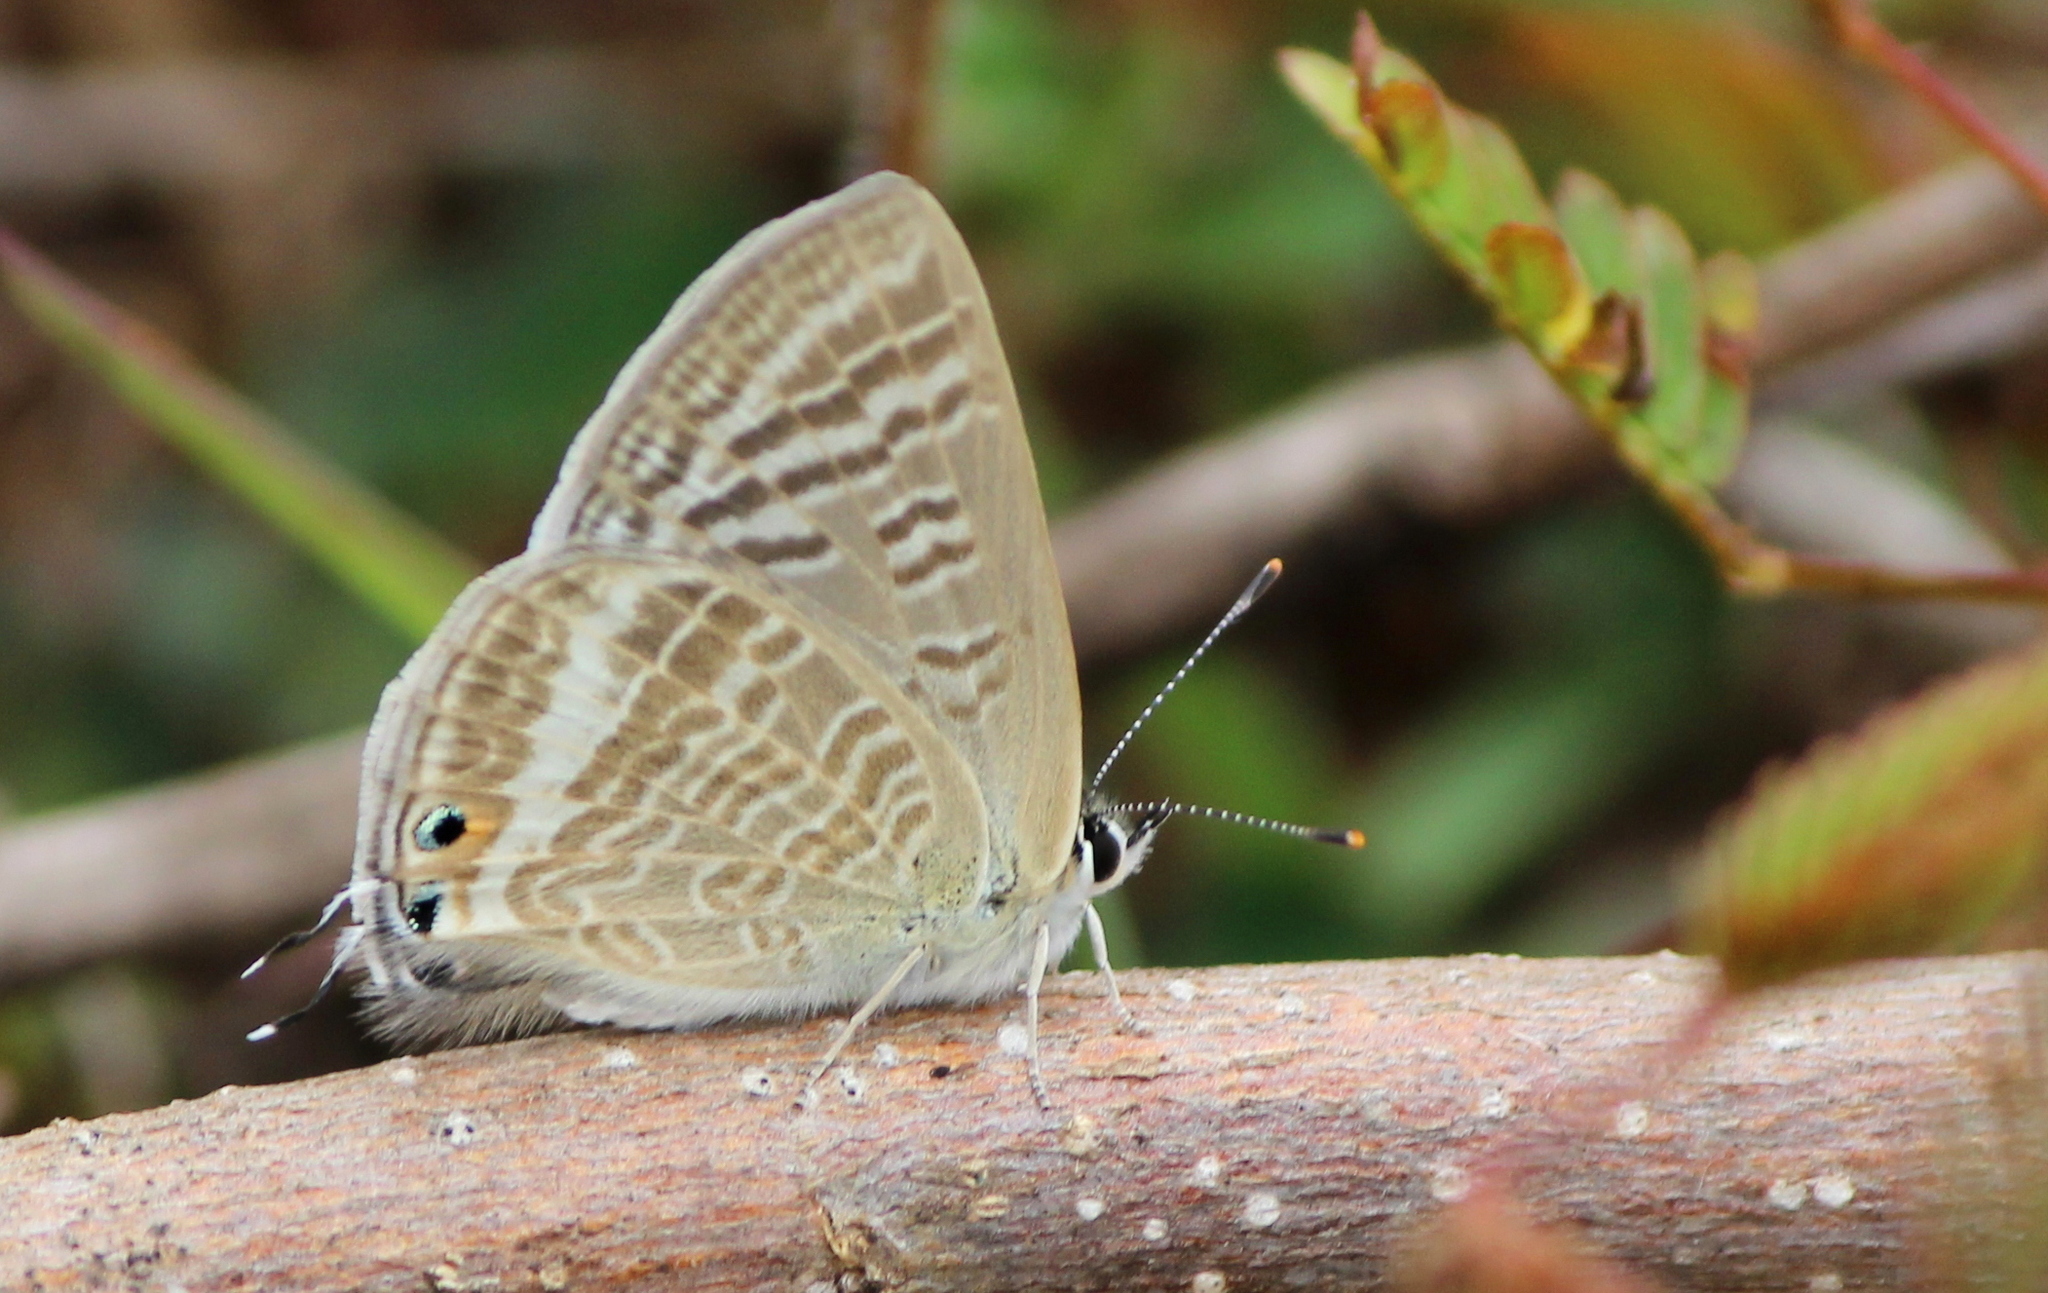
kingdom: Animalia
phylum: Arthropoda
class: Insecta
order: Lepidoptera
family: Lycaenidae
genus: Lampides
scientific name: Lampides boeticus
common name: Long-tailed blue
